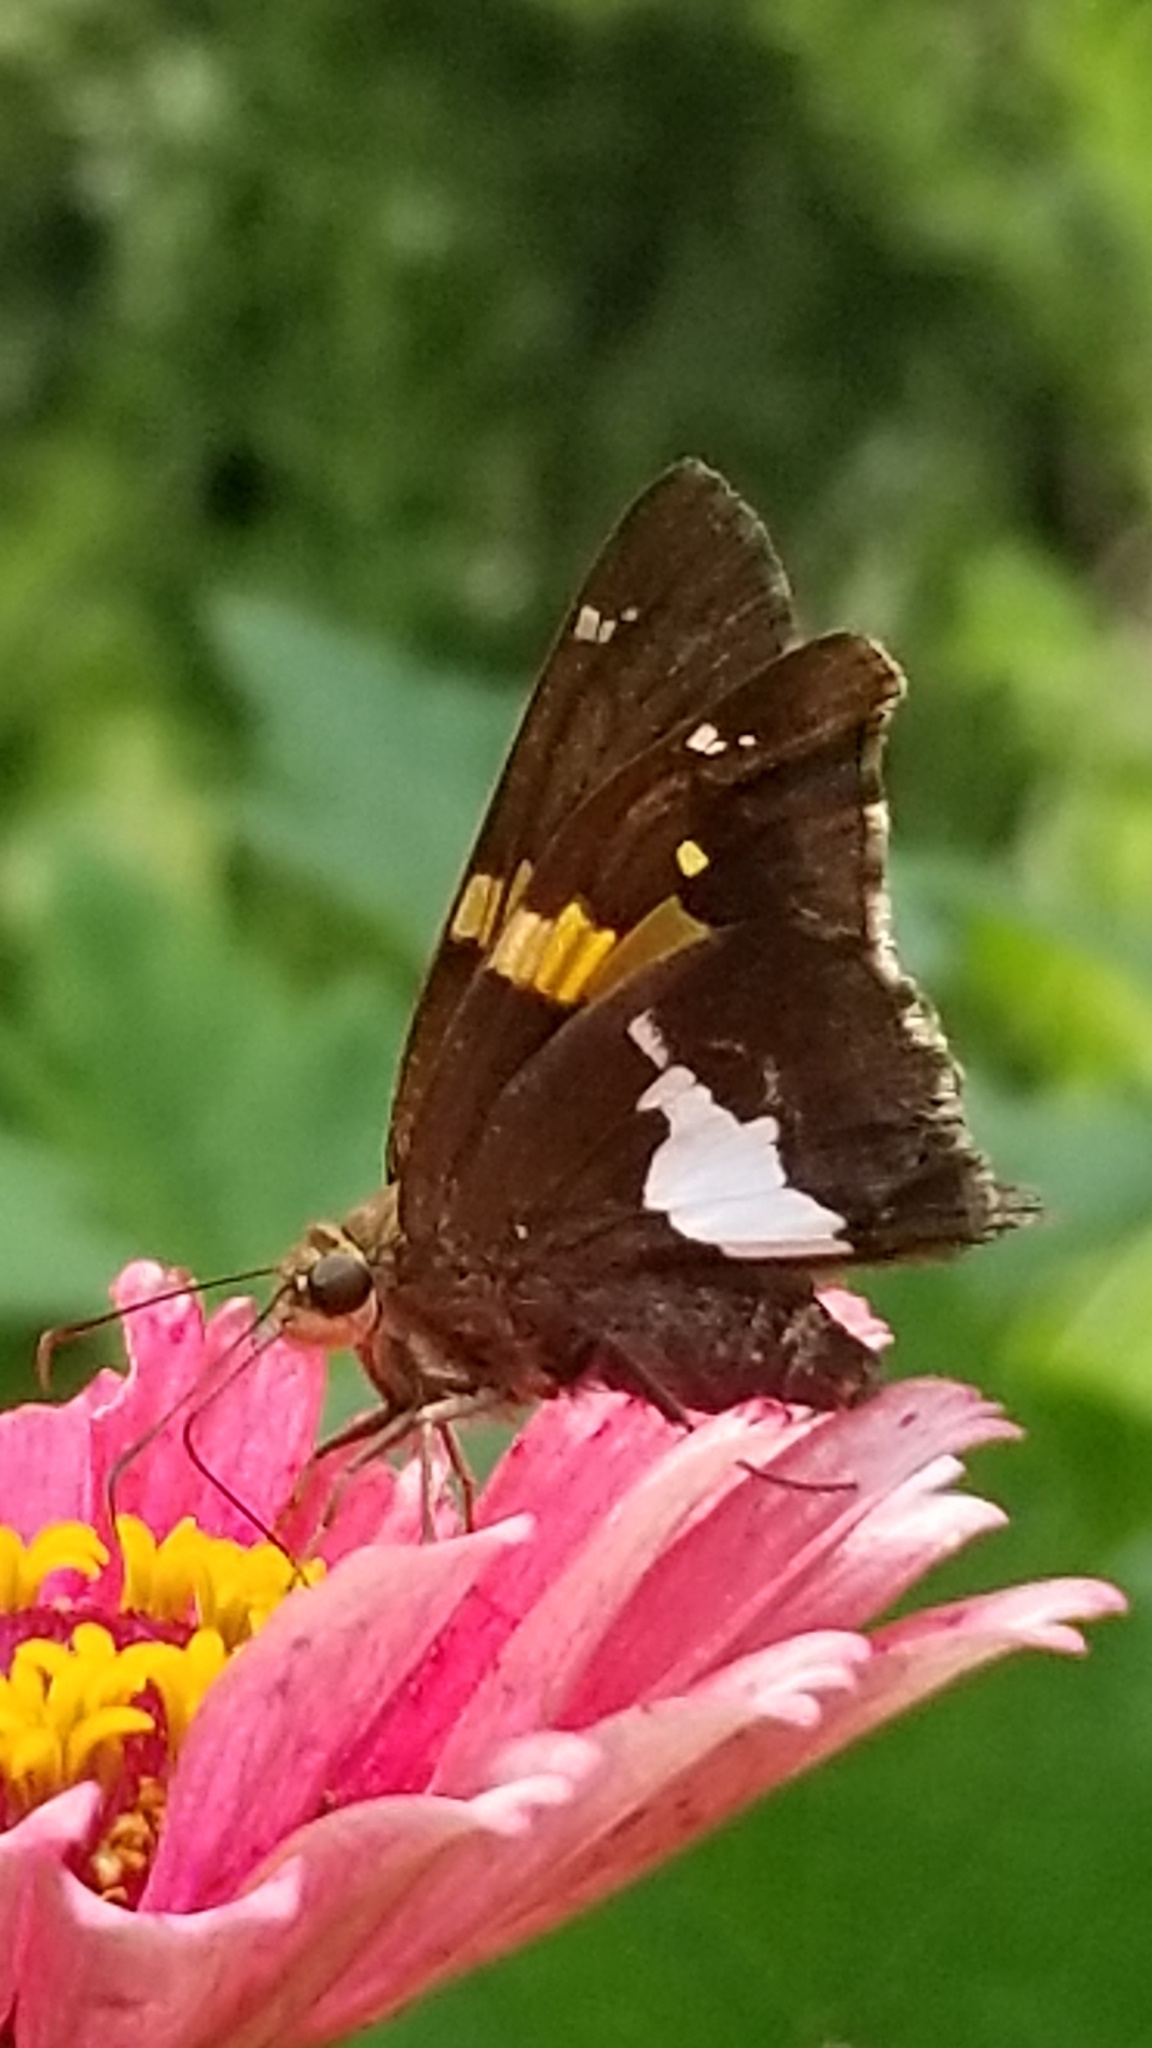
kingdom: Animalia
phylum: Arthropoda
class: Insecta
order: Lepidoptera
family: Hesperiidae
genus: Epargyreus
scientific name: Epargyreus clarus
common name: Silver-spotted skipper
